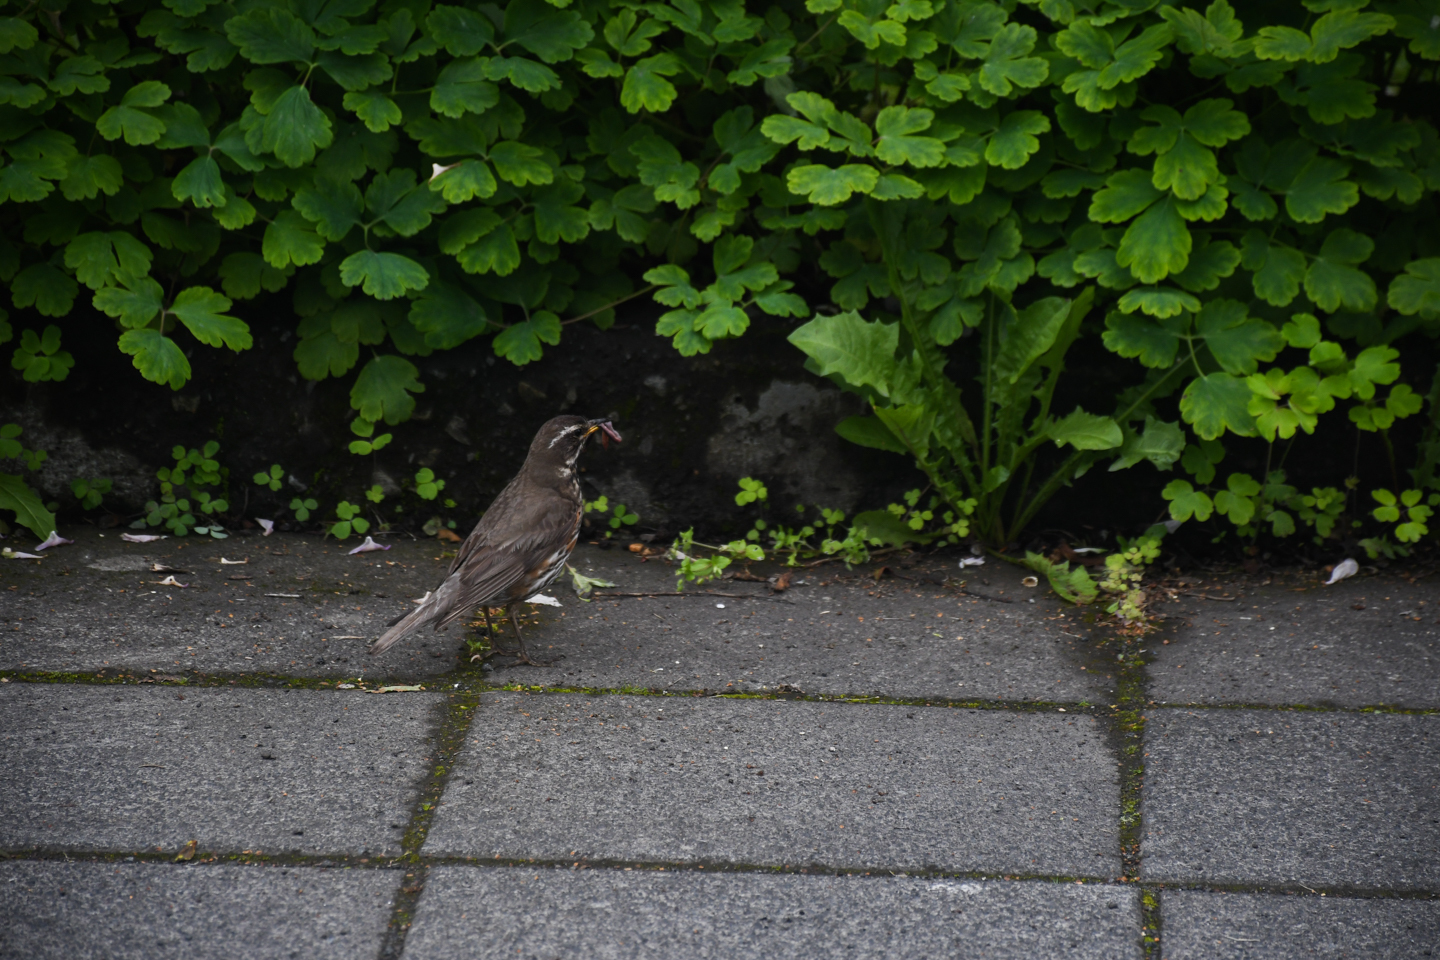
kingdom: Animalia
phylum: Chordata
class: Aves
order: Passeriformes
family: Turdidae
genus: Turdus
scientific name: Turdus iliacus
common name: Redwing
